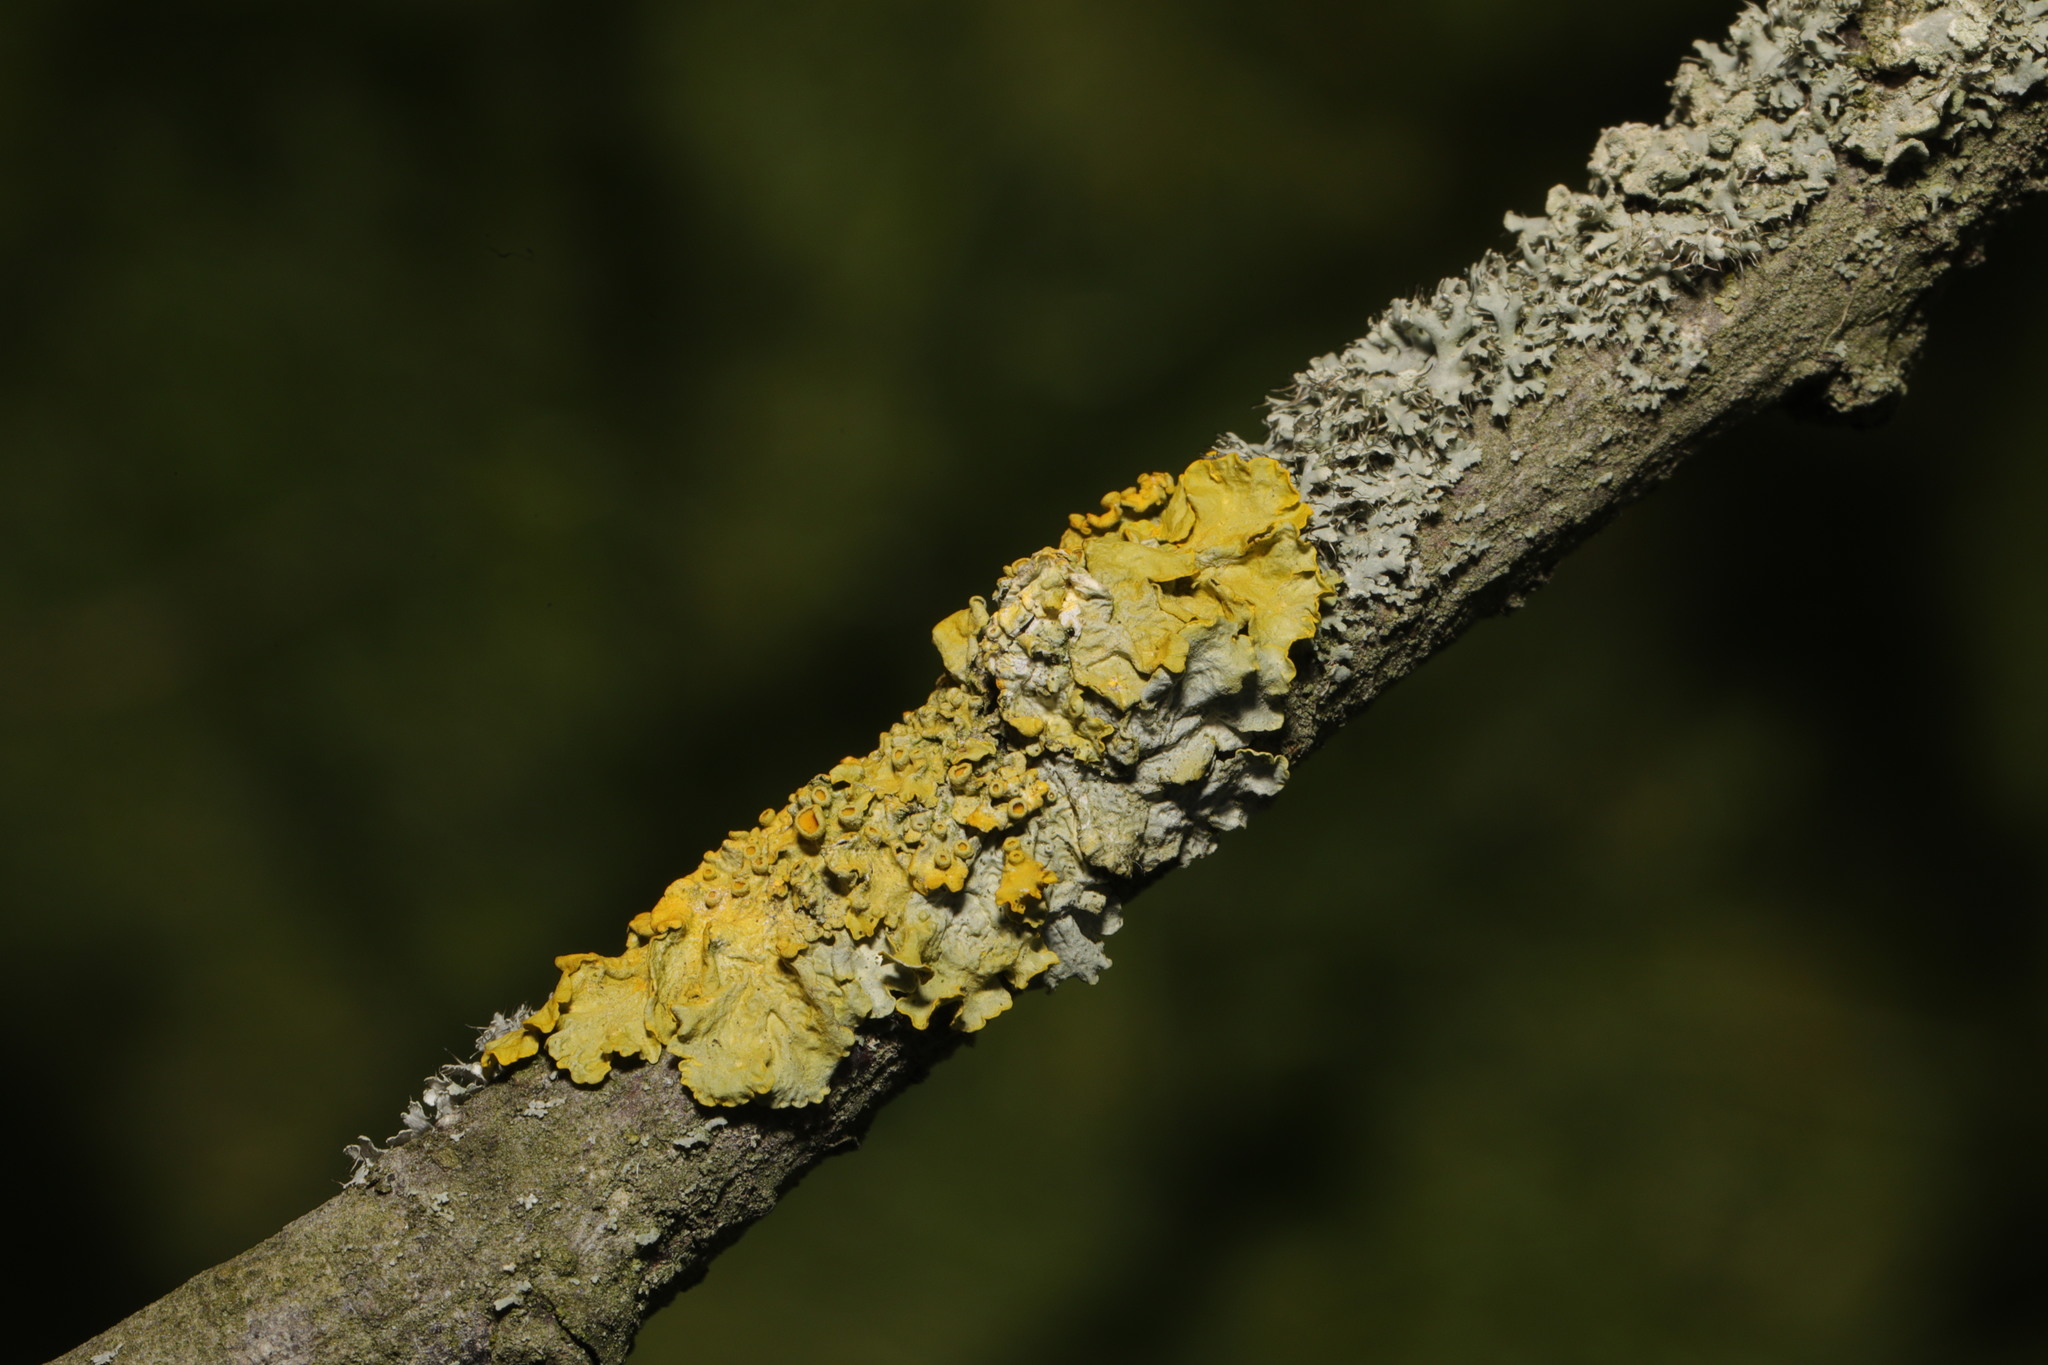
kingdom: Fungi
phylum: Ascomycota
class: Lecanoromycetes
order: Teloschistales
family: Teloschistaceae
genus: Xanthoria
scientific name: Xanthoria parietina
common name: Common orange lichen
